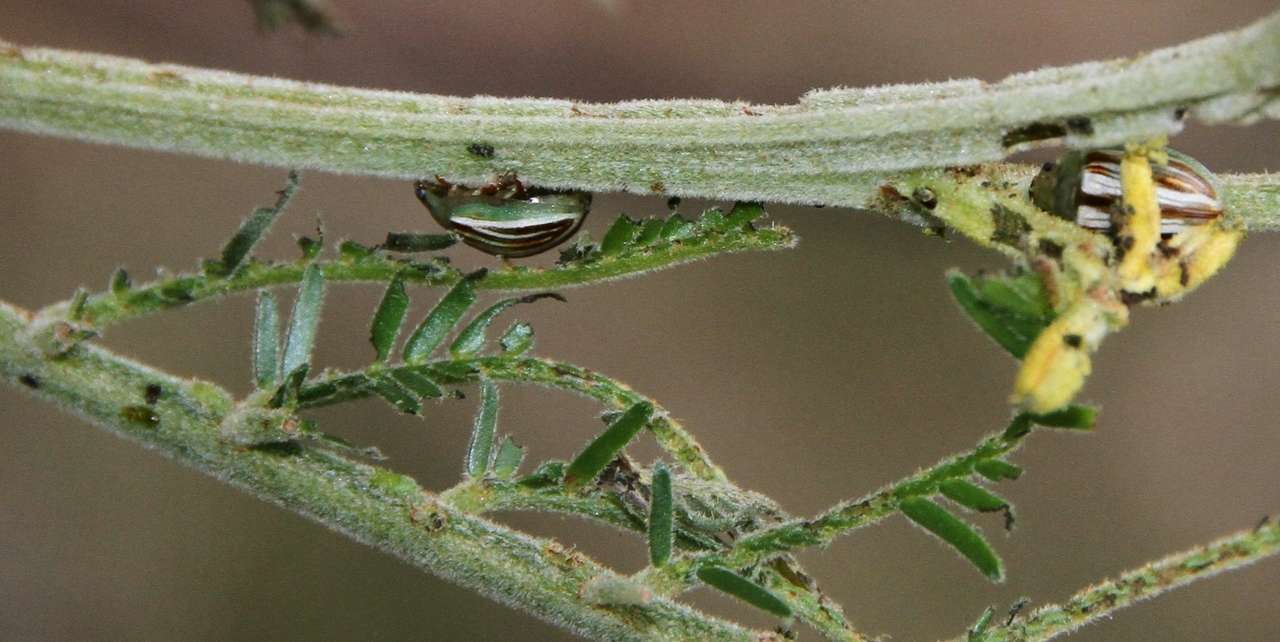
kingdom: Animalia
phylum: Arthropoda
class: Insecta
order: Coleoptera
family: Chrysomelidae
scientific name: Chrysomelidae
